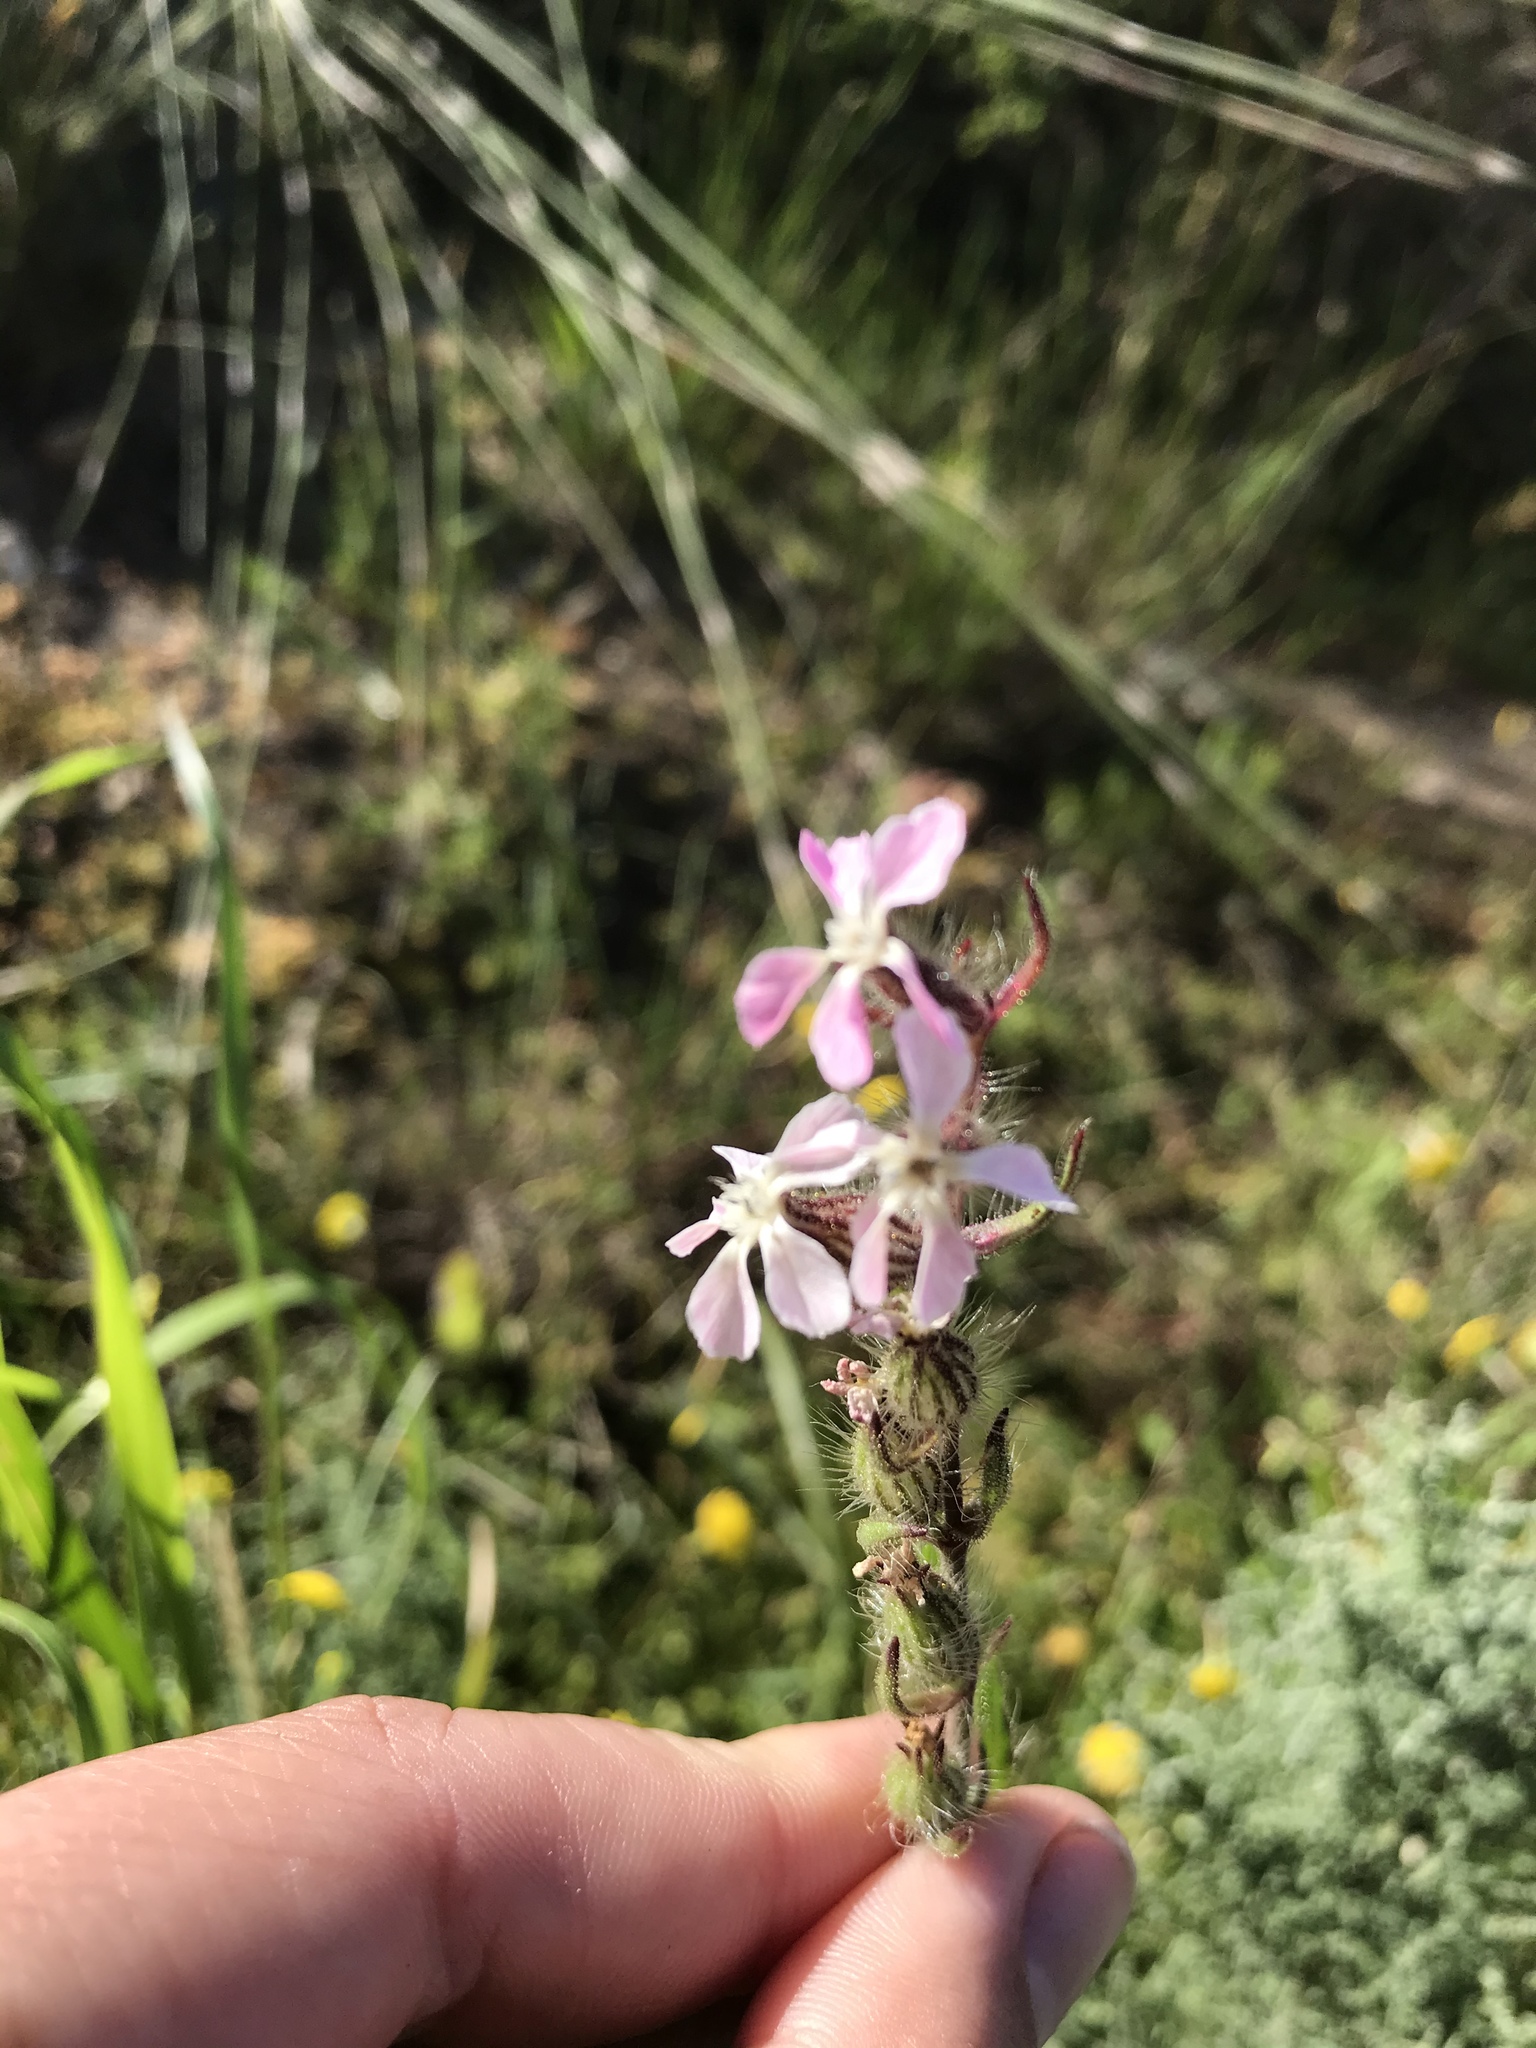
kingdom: Plantae
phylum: Tracheophyta
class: Magnoliopsida
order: Caryophyllales
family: Caryophyllaceae
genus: Silene
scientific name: Silene gallica
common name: Small-flowered catchfly
